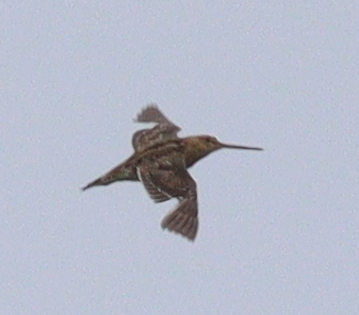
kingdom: Animalia
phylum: Chordata
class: Aves
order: Charadriiformes
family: Scolopacidae
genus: Gallinago
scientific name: Gallinago gallinago
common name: Common snipe
